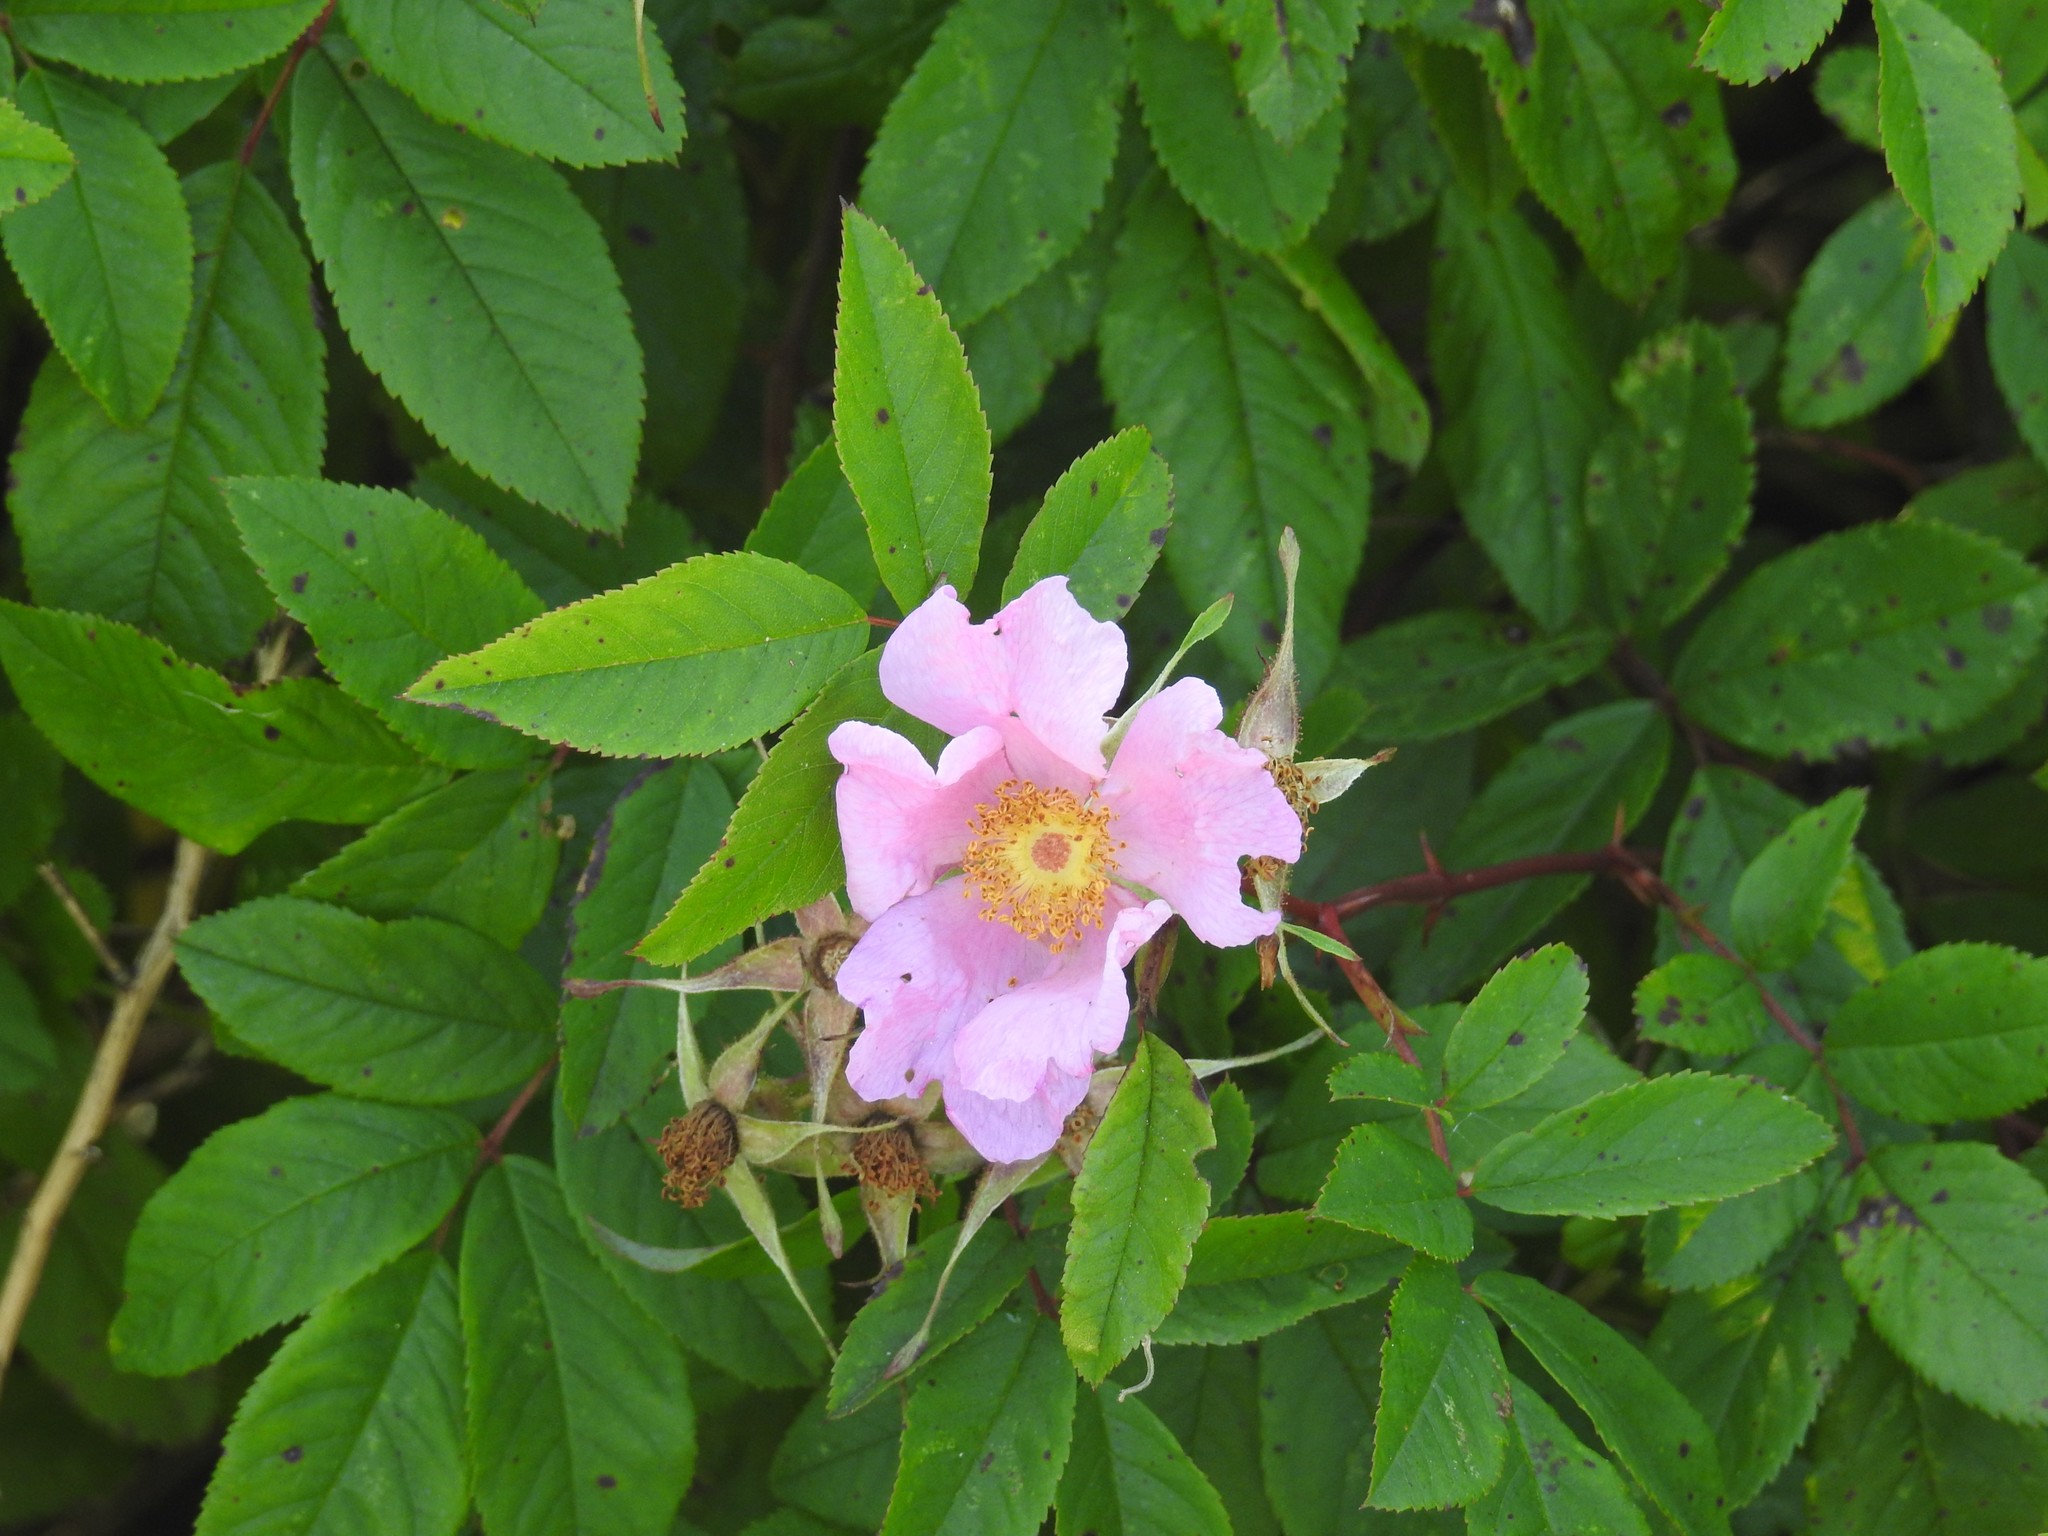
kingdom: Plantae
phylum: Tracheophyta
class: Magnoliopsida
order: Rosales
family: Rosaceae
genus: Rosa
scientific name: Rosa palustris
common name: Swamp rose
